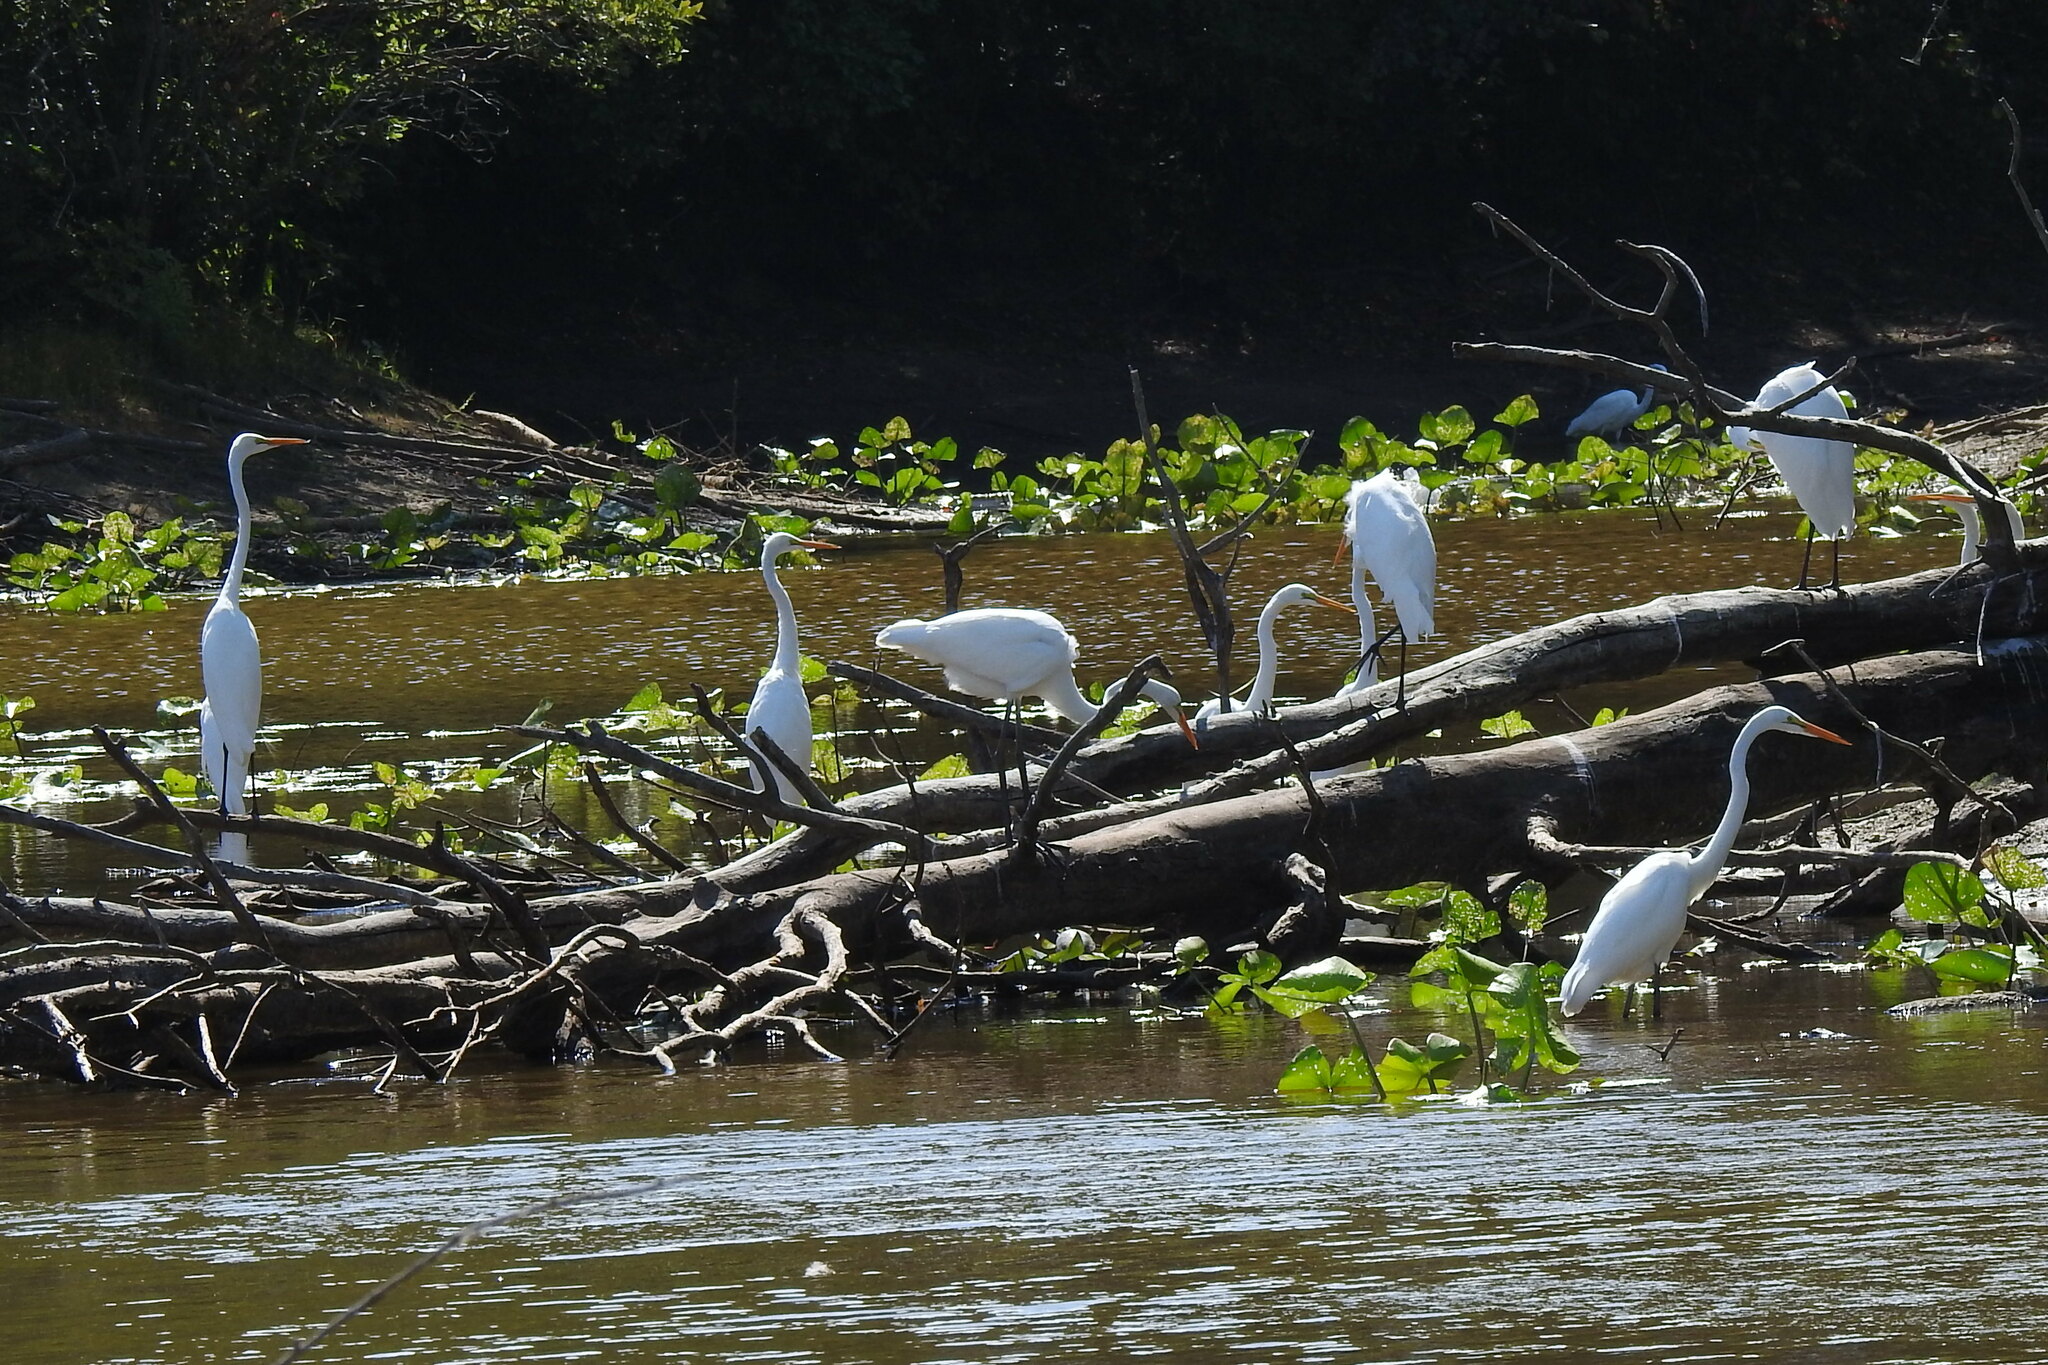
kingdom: Animalia
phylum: Chordata
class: Aves
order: Pelecaniformes
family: Ardeidae
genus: Ardea
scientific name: Ardea alba
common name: Great egret
